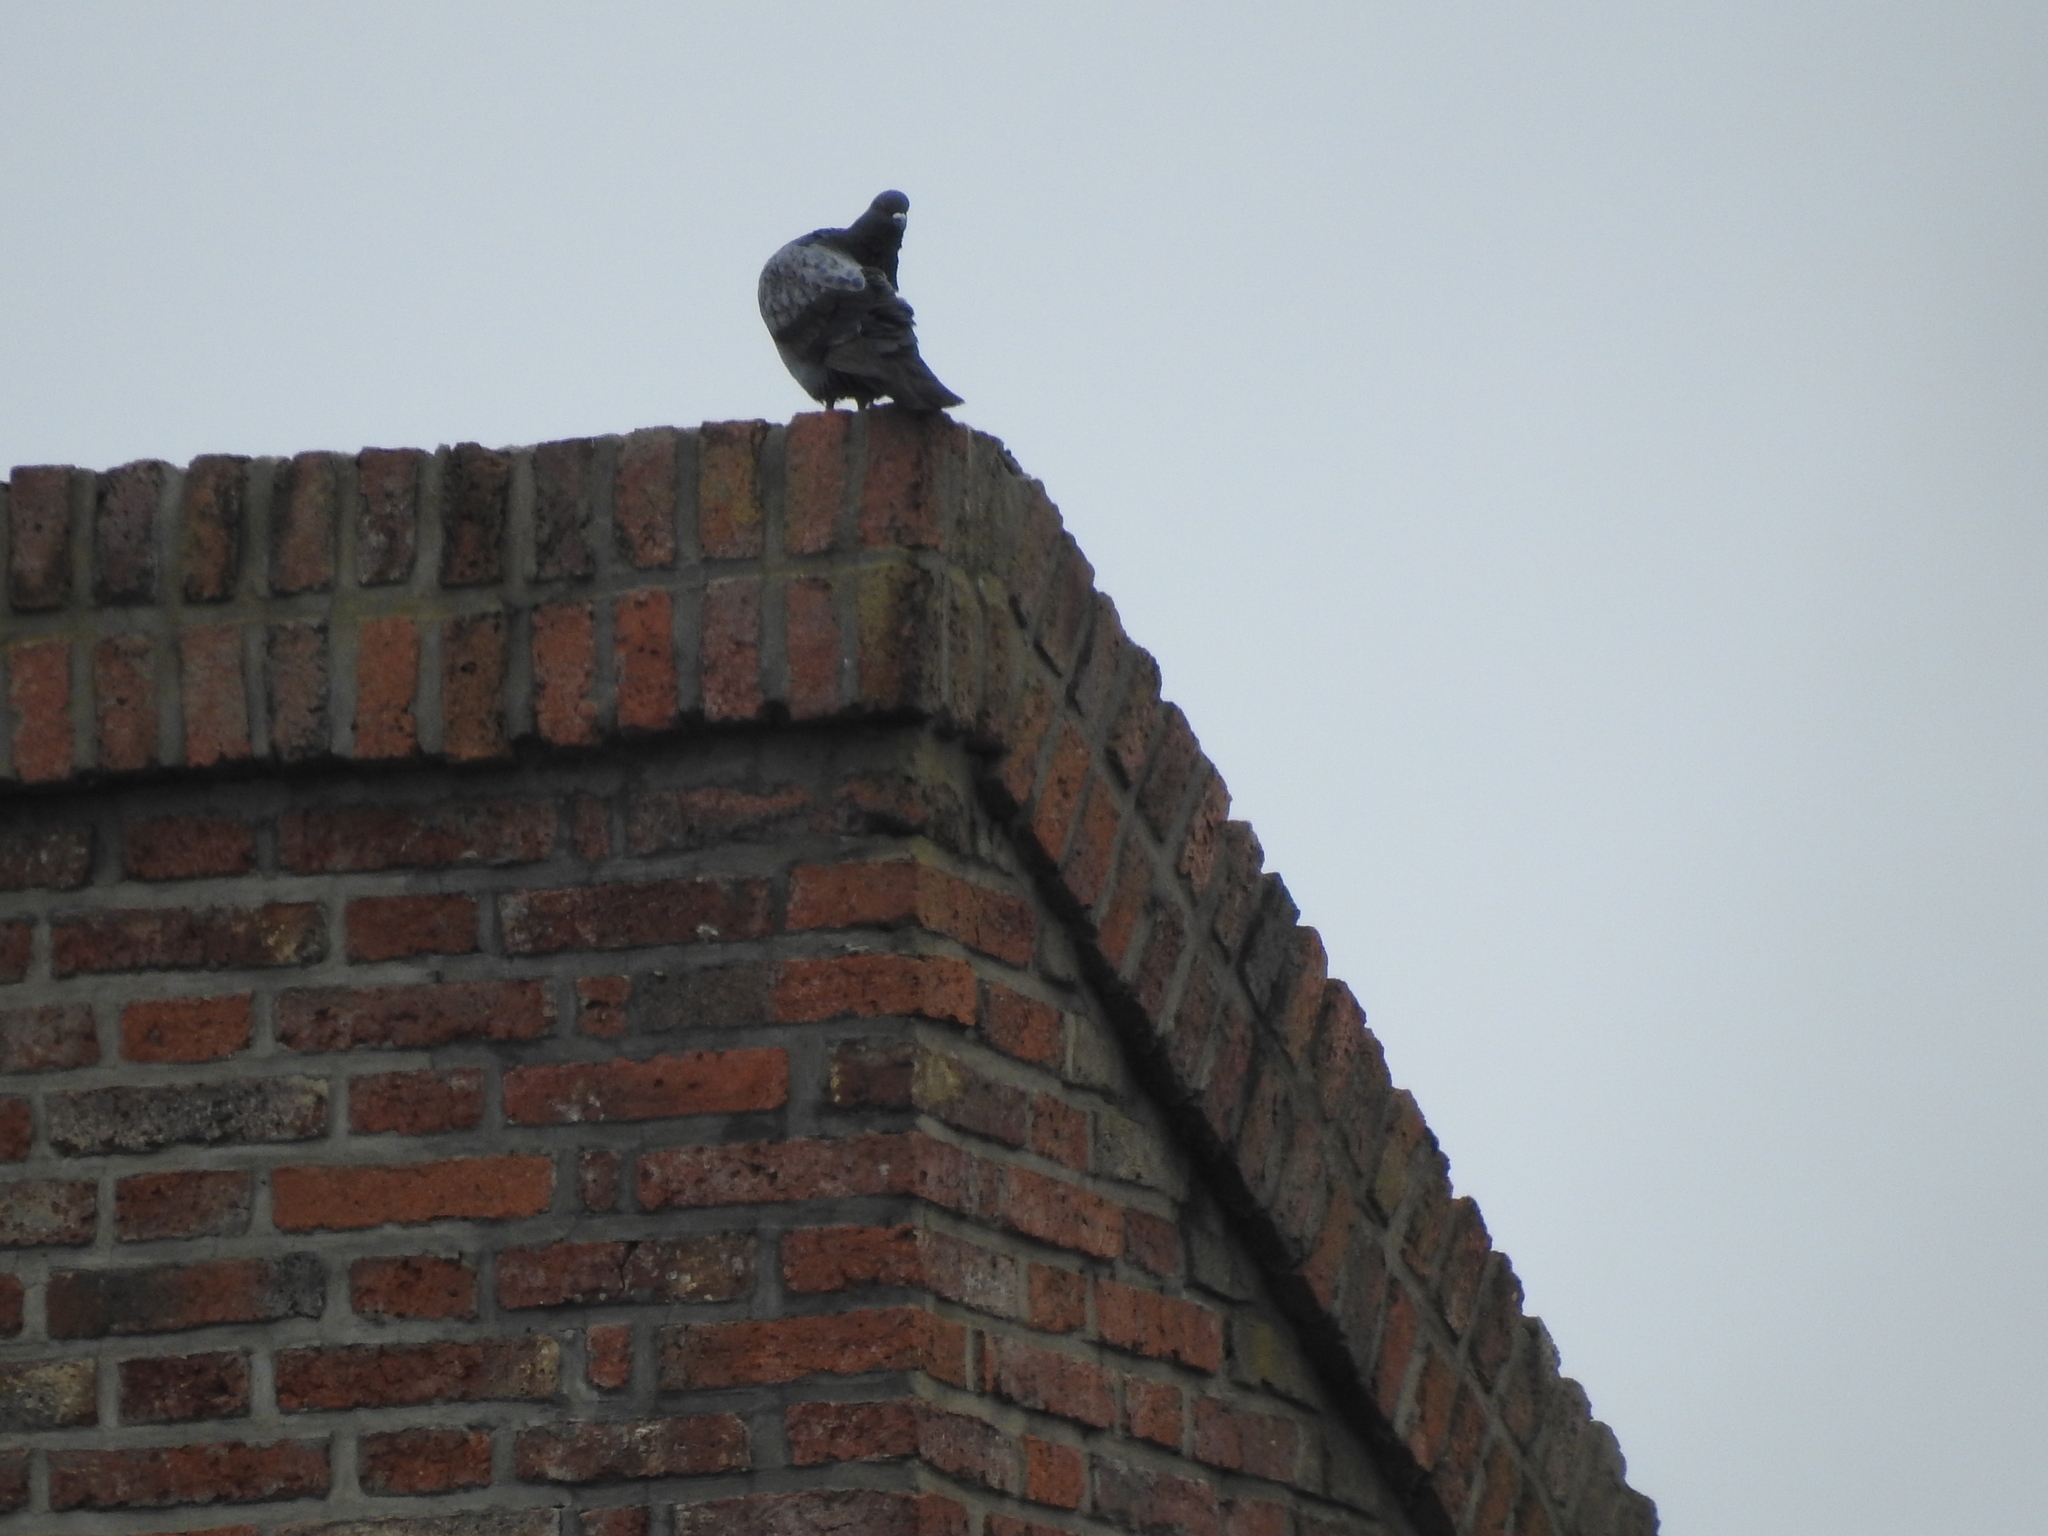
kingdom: Animalia
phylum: Chordata
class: Aves
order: Columbiformes
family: Columbidae
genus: Columba
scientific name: Columba livia
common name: Rock pigeon
